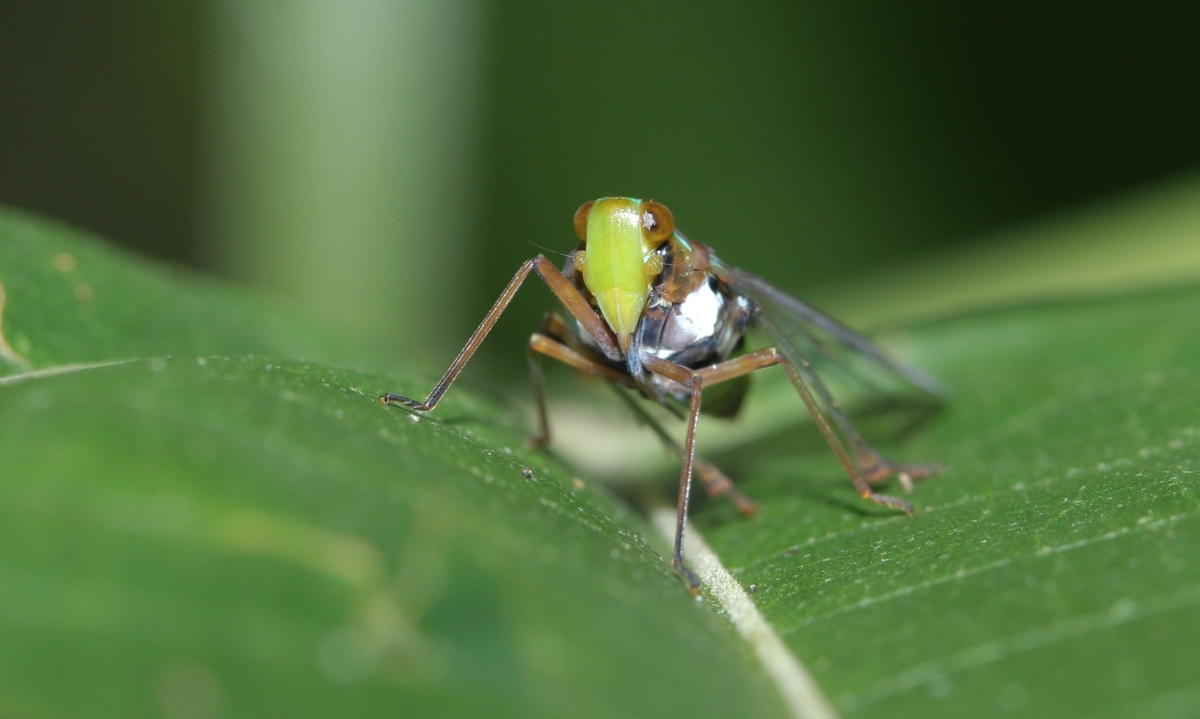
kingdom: Animalia
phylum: Arthropoda
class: Insecta
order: Hemiptera
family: Dictyopharidae
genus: Taosa
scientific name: Taosa
